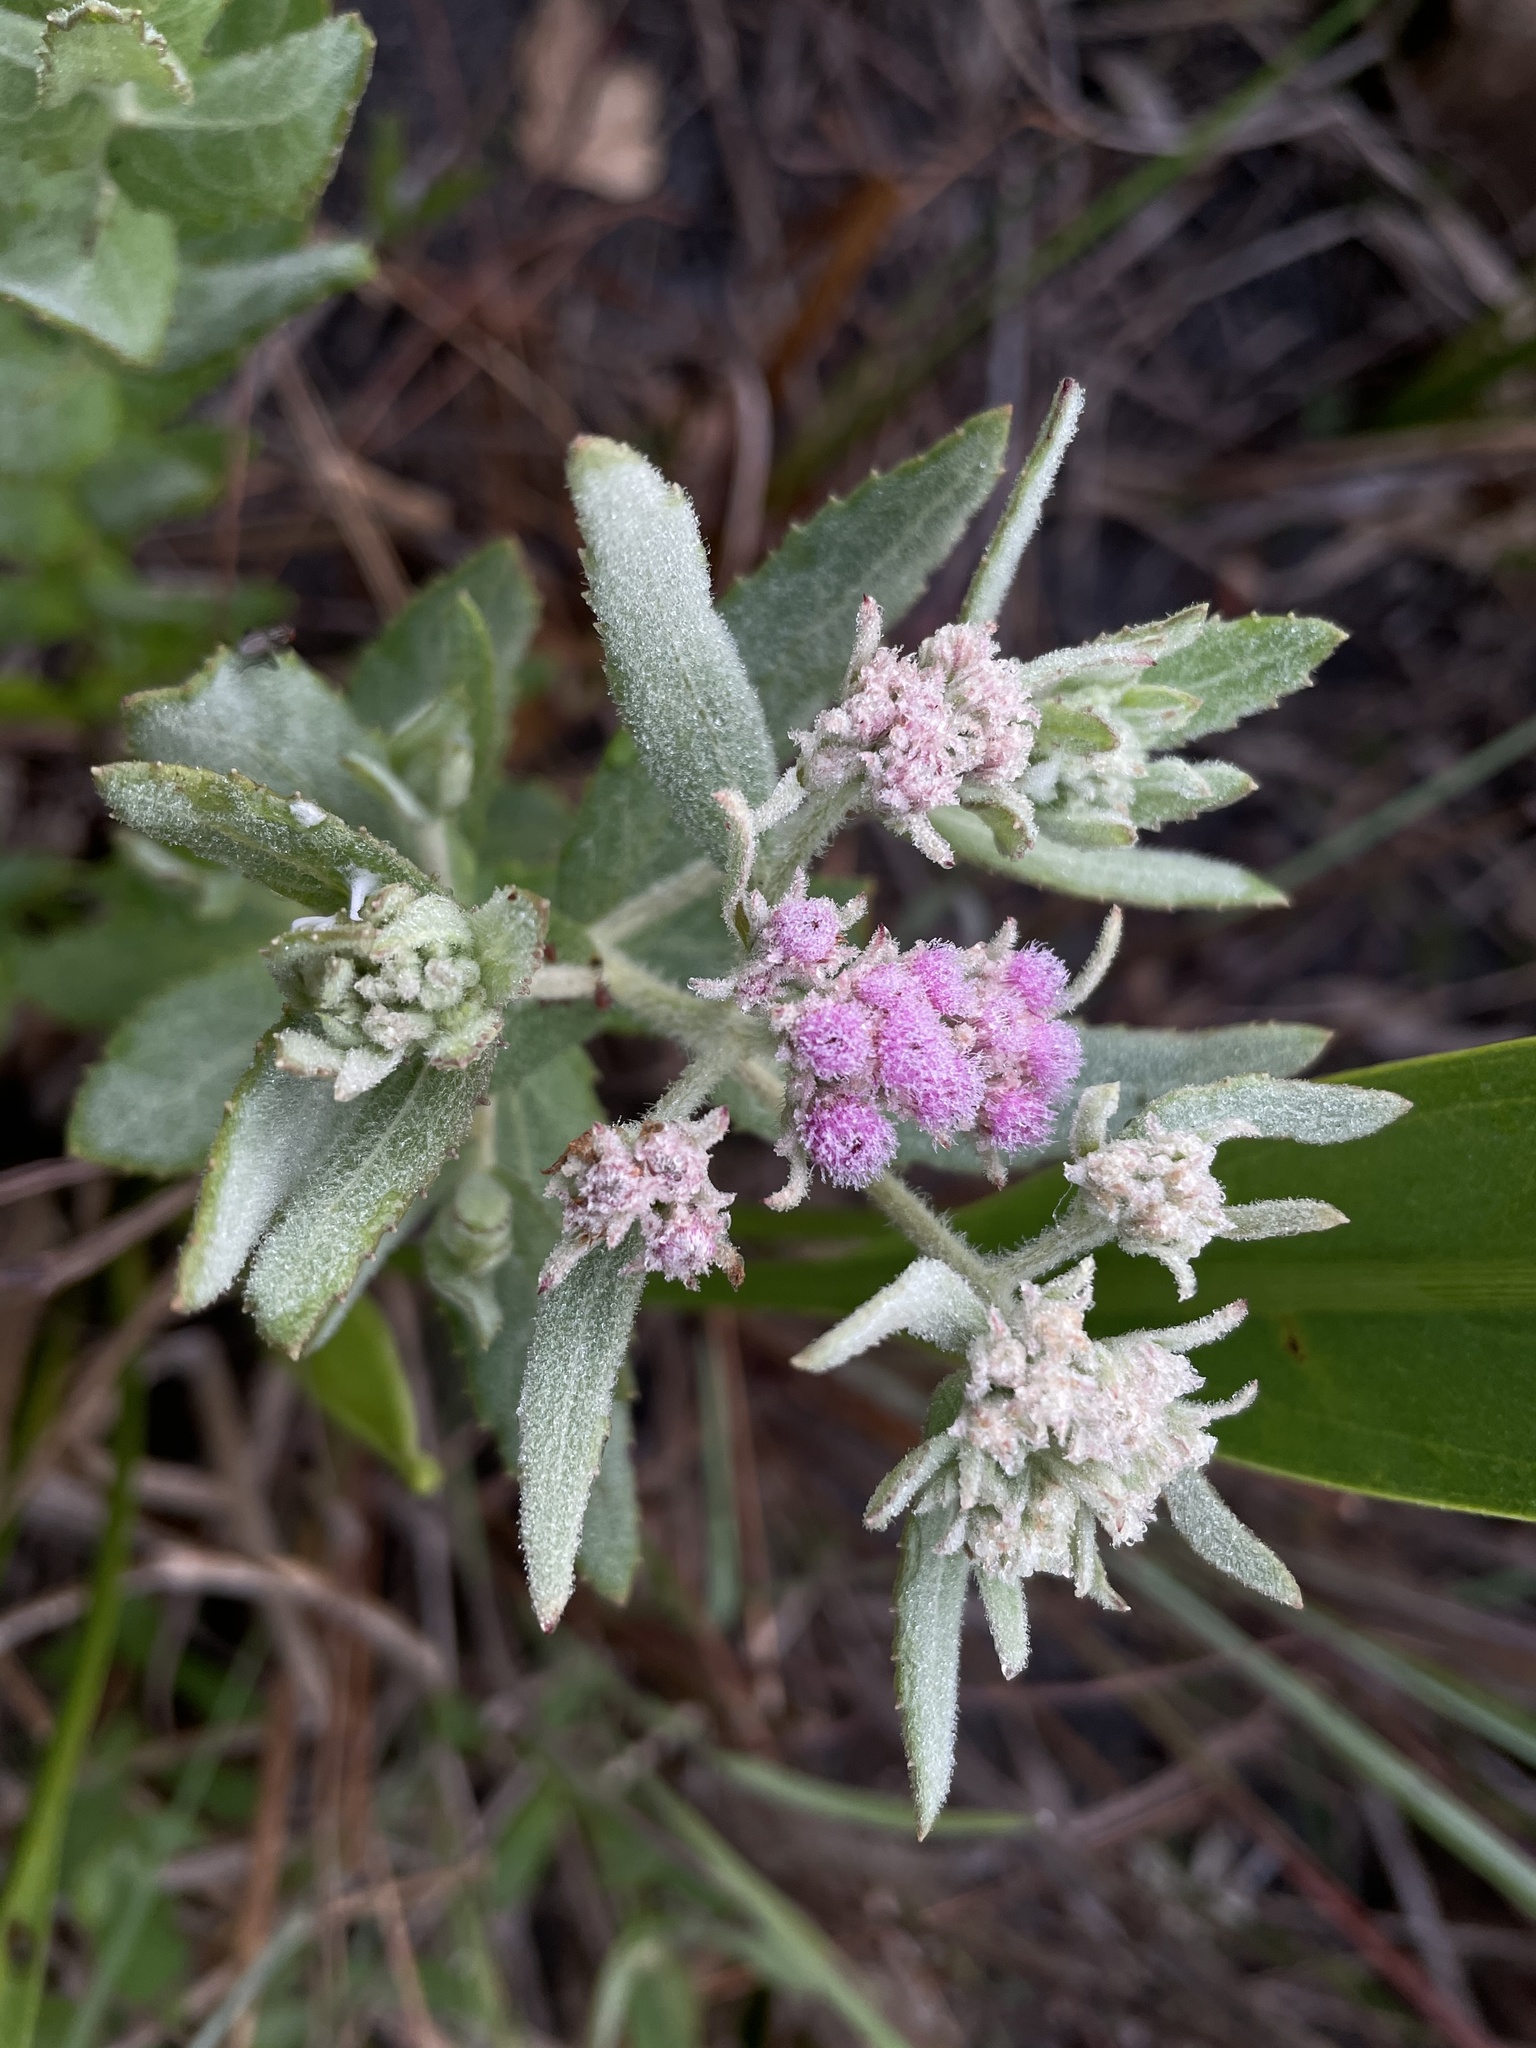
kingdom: Plantae
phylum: Tracheophyta
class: Magnoliopsida
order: Asterales
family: Asteraceae
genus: Pluchea
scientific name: Pluchea baccharis
